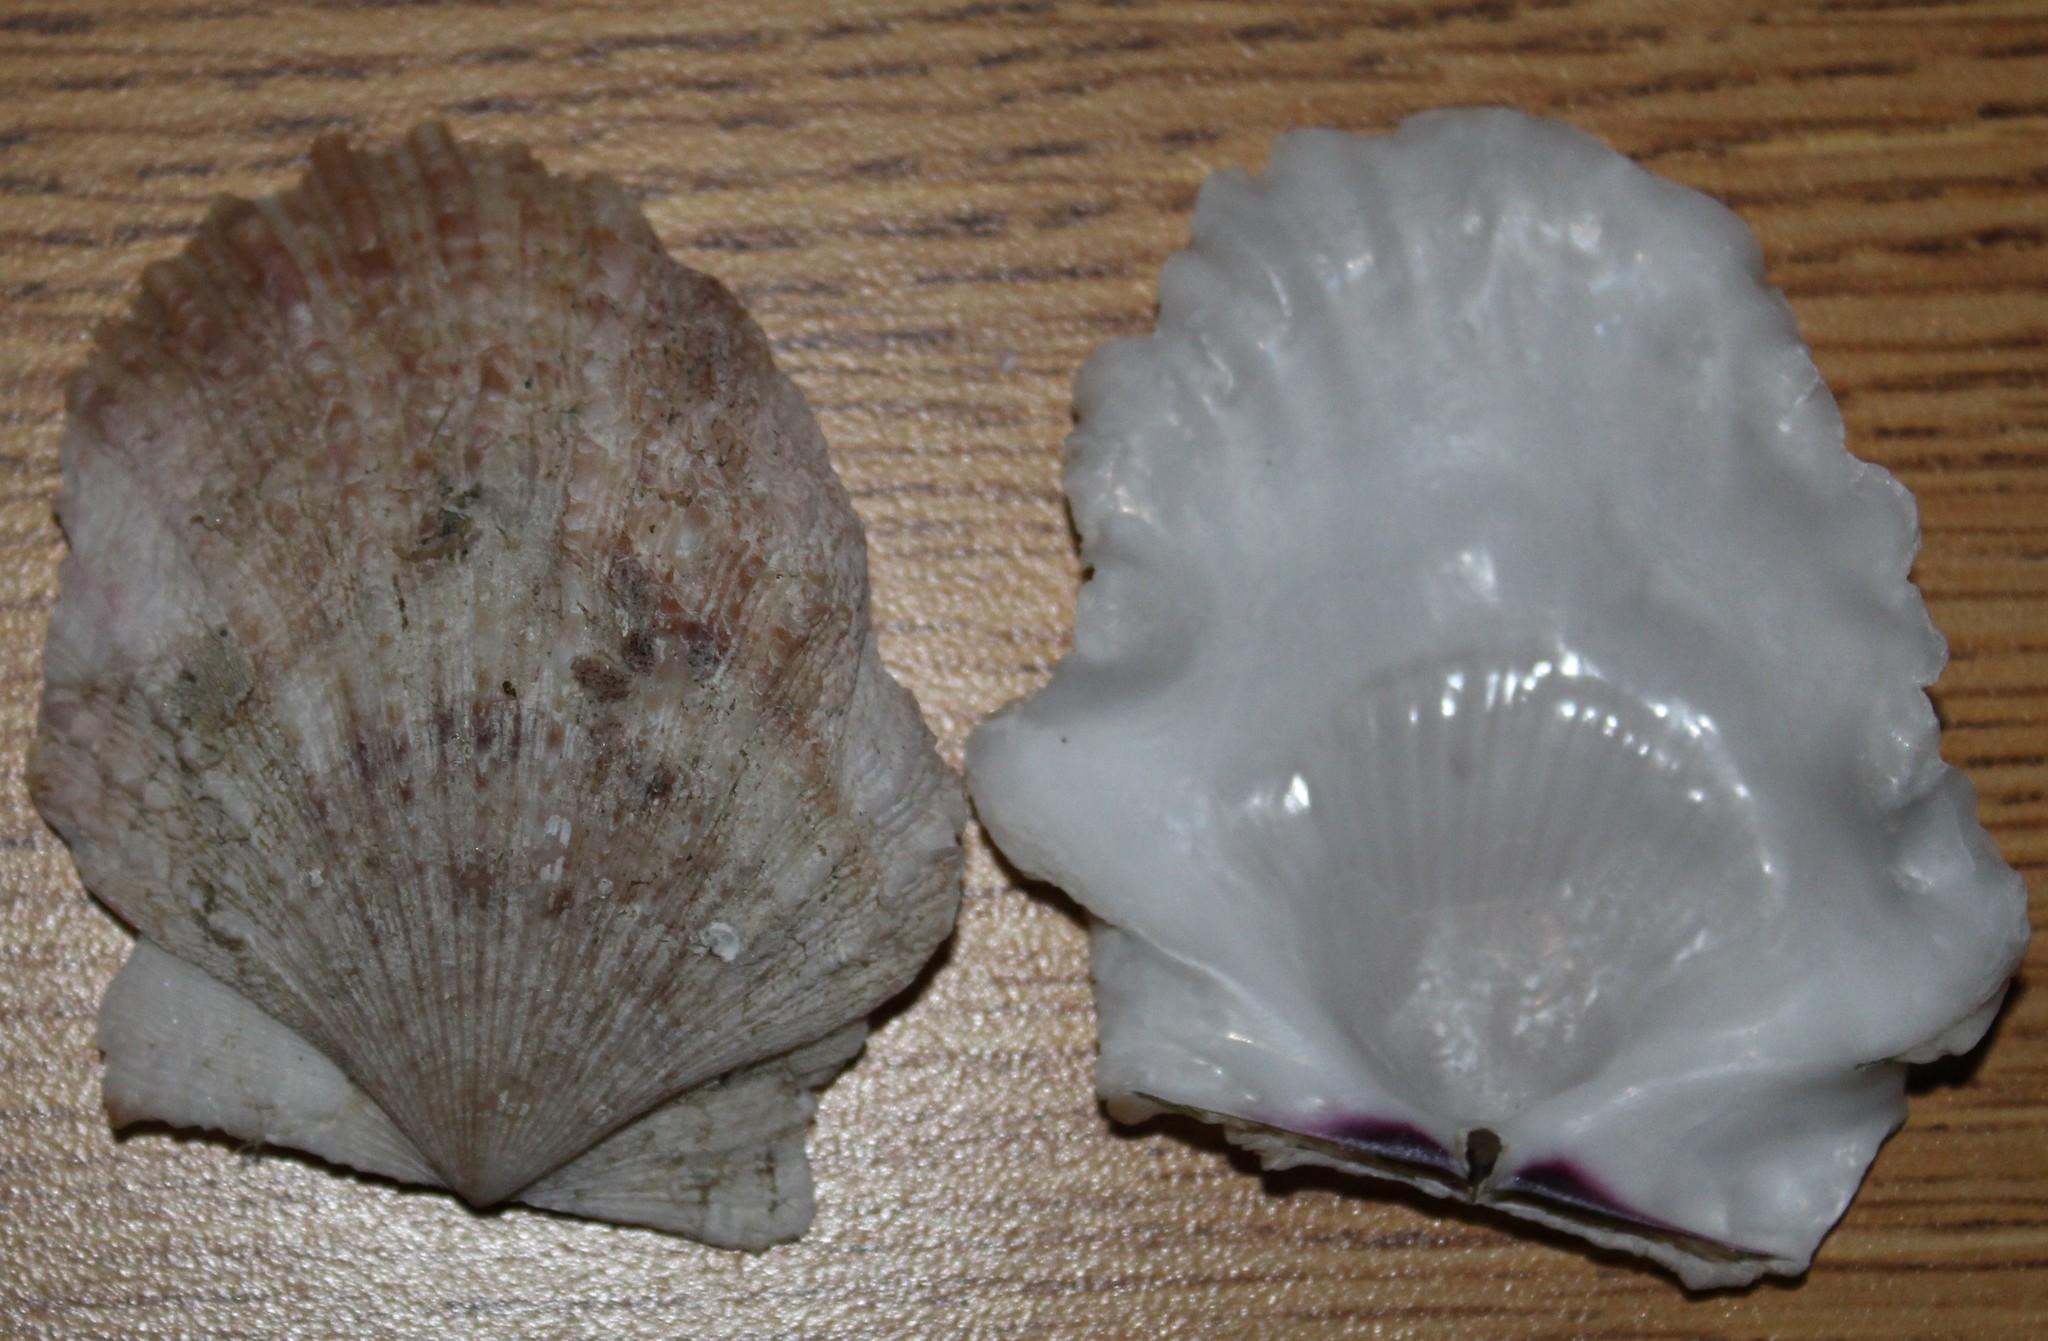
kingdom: Animalia
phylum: Mollusca
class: Bivalvia
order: Pectinida
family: Pectinidae
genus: Crassadoma
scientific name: Crassadoma gigantea
